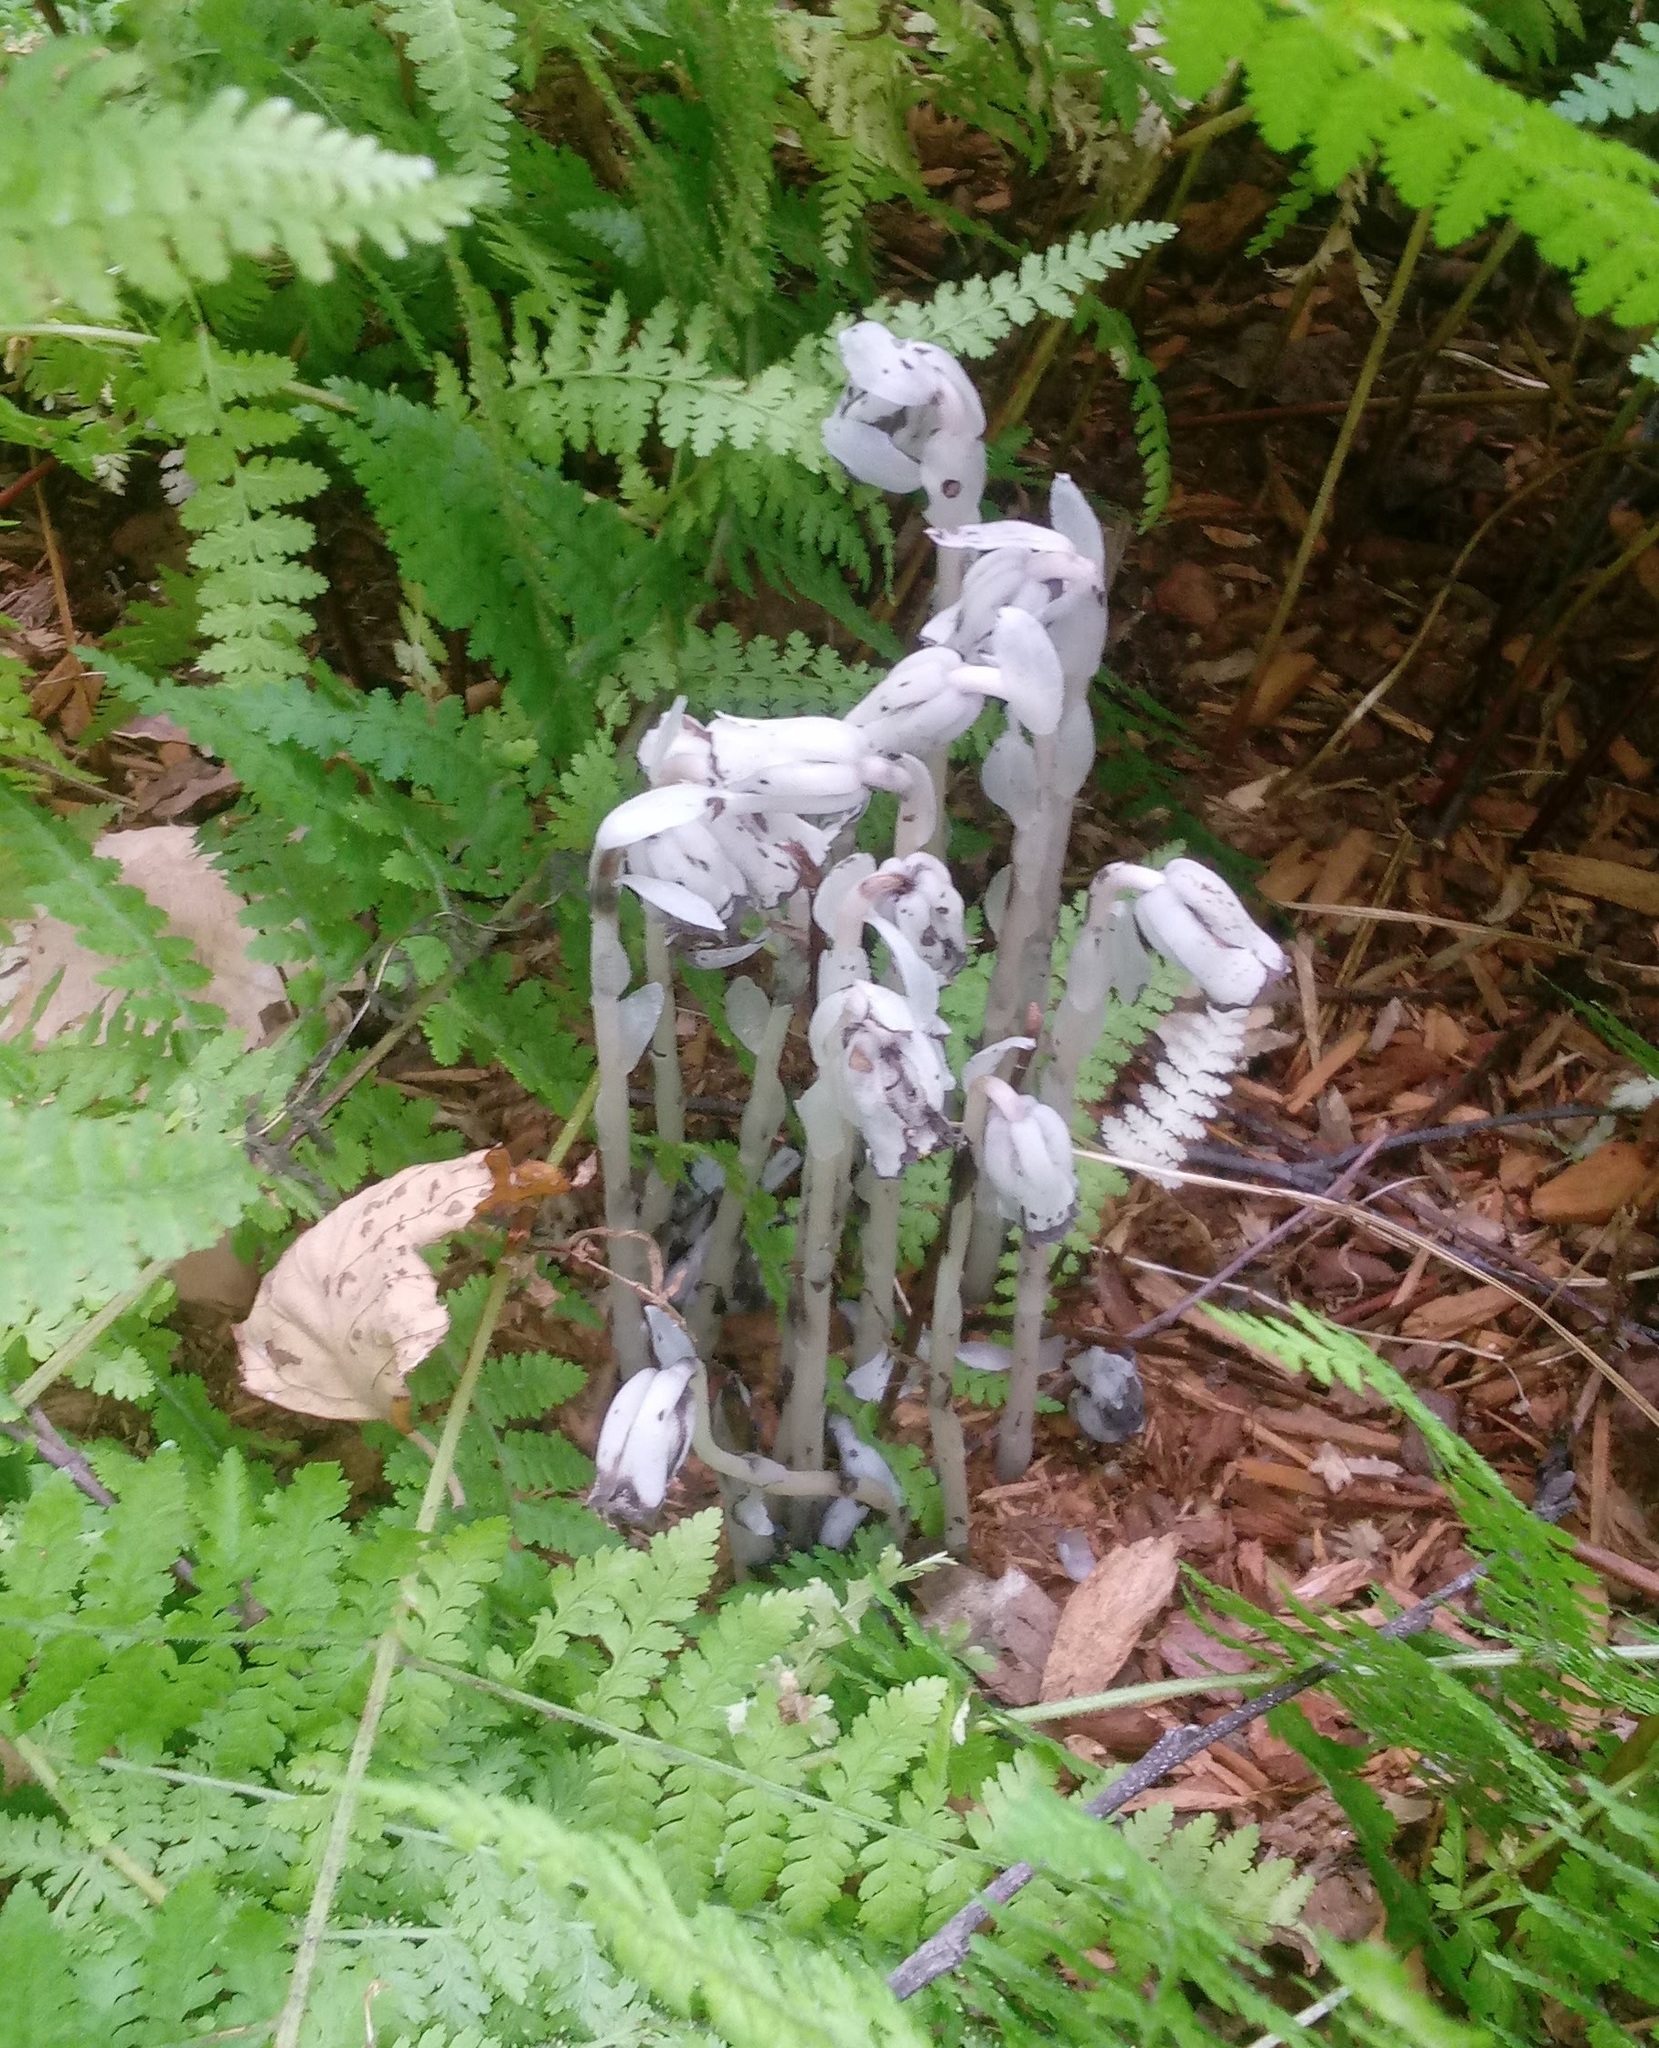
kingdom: Plantae
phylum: Tracheophyta
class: Magnoliopsida
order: Ericales
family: Ericaceae
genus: Monotropa
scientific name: Monotropa uniflora
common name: Convulsion root
